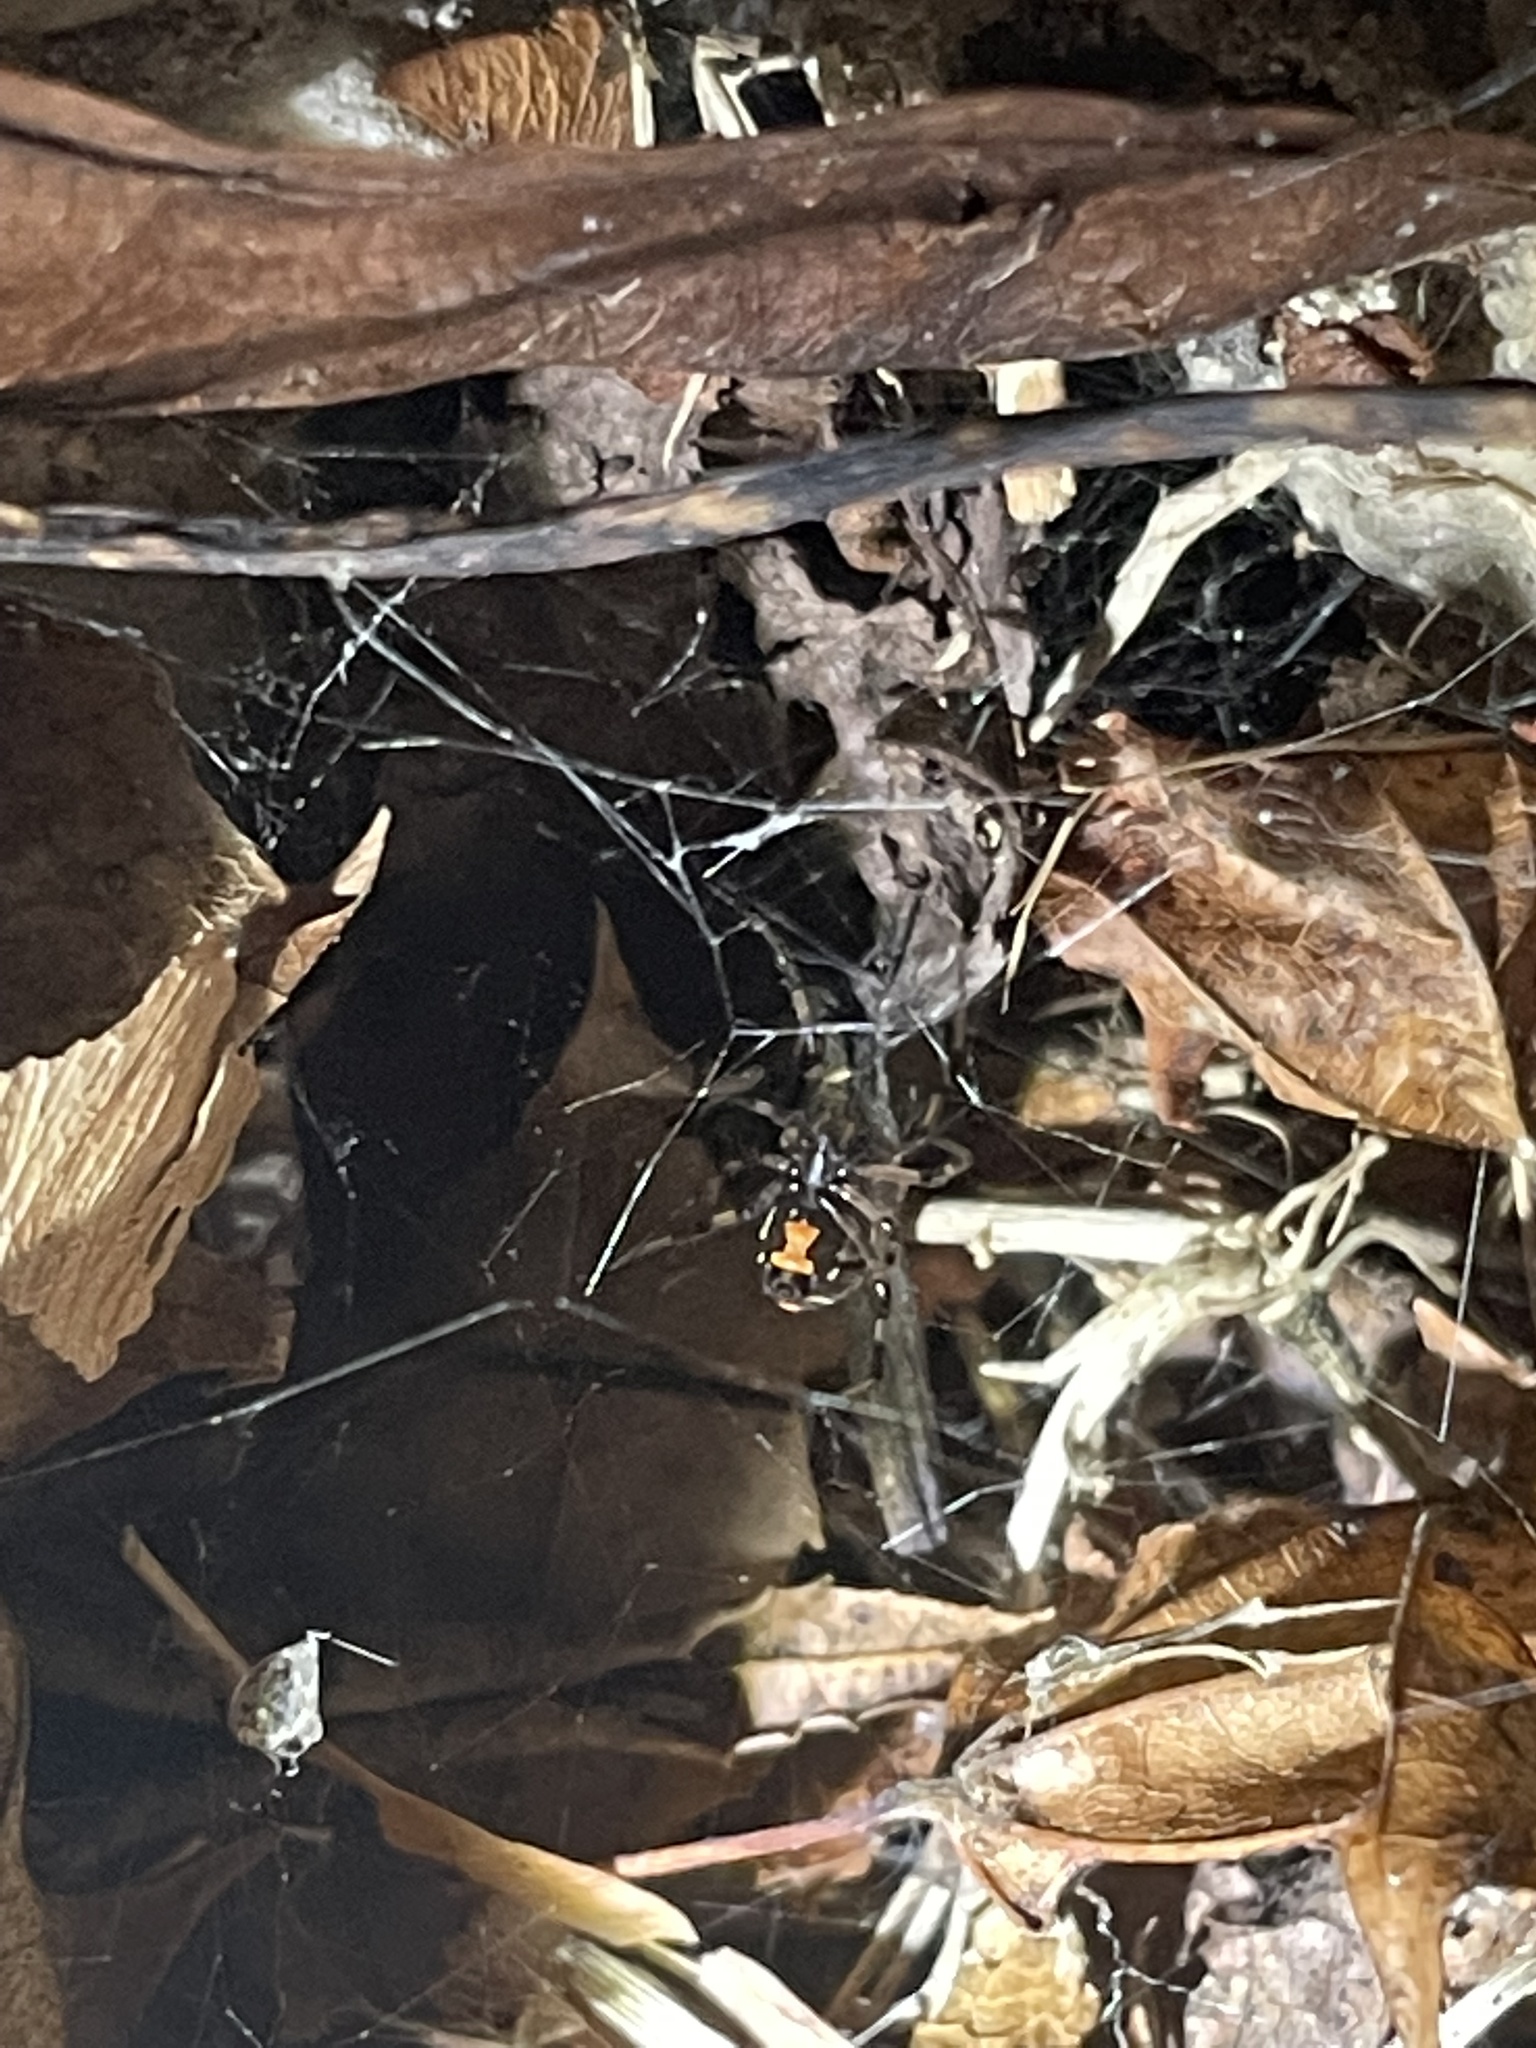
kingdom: Animalia
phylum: Arthropoda
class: Arachnida
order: Araneae
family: Theridiidae
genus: Latrodectus
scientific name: Latrodectus mactans
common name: Cobweb spiders
